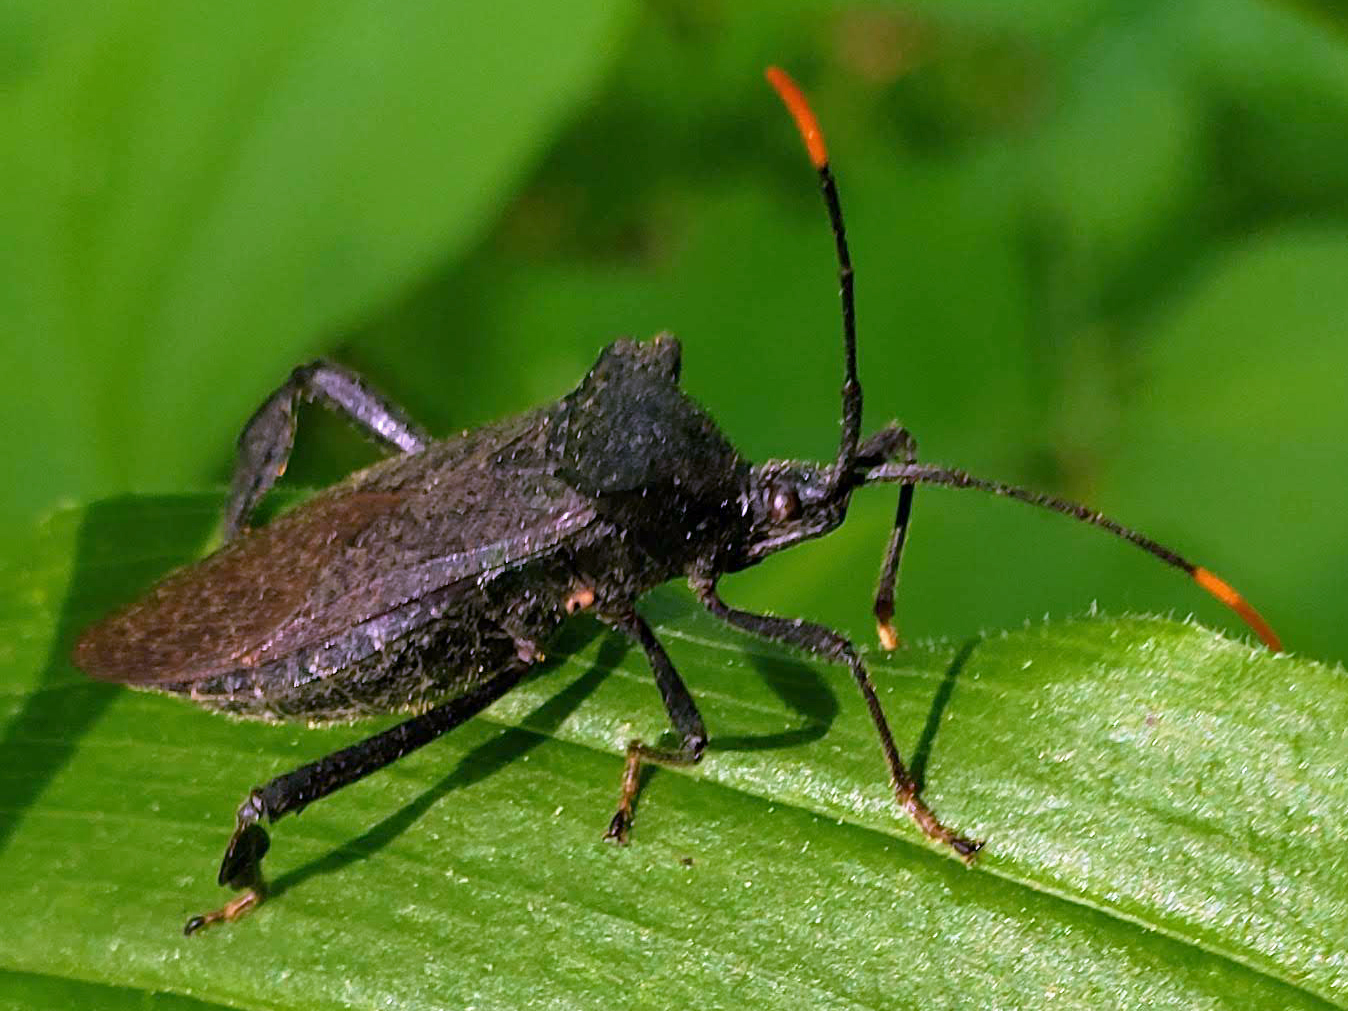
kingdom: Animalia
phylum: Arthropoda
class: Insecta
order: Hemiptera
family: Coreidae
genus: Acanthocephala
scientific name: Acanthocephala terminalis
